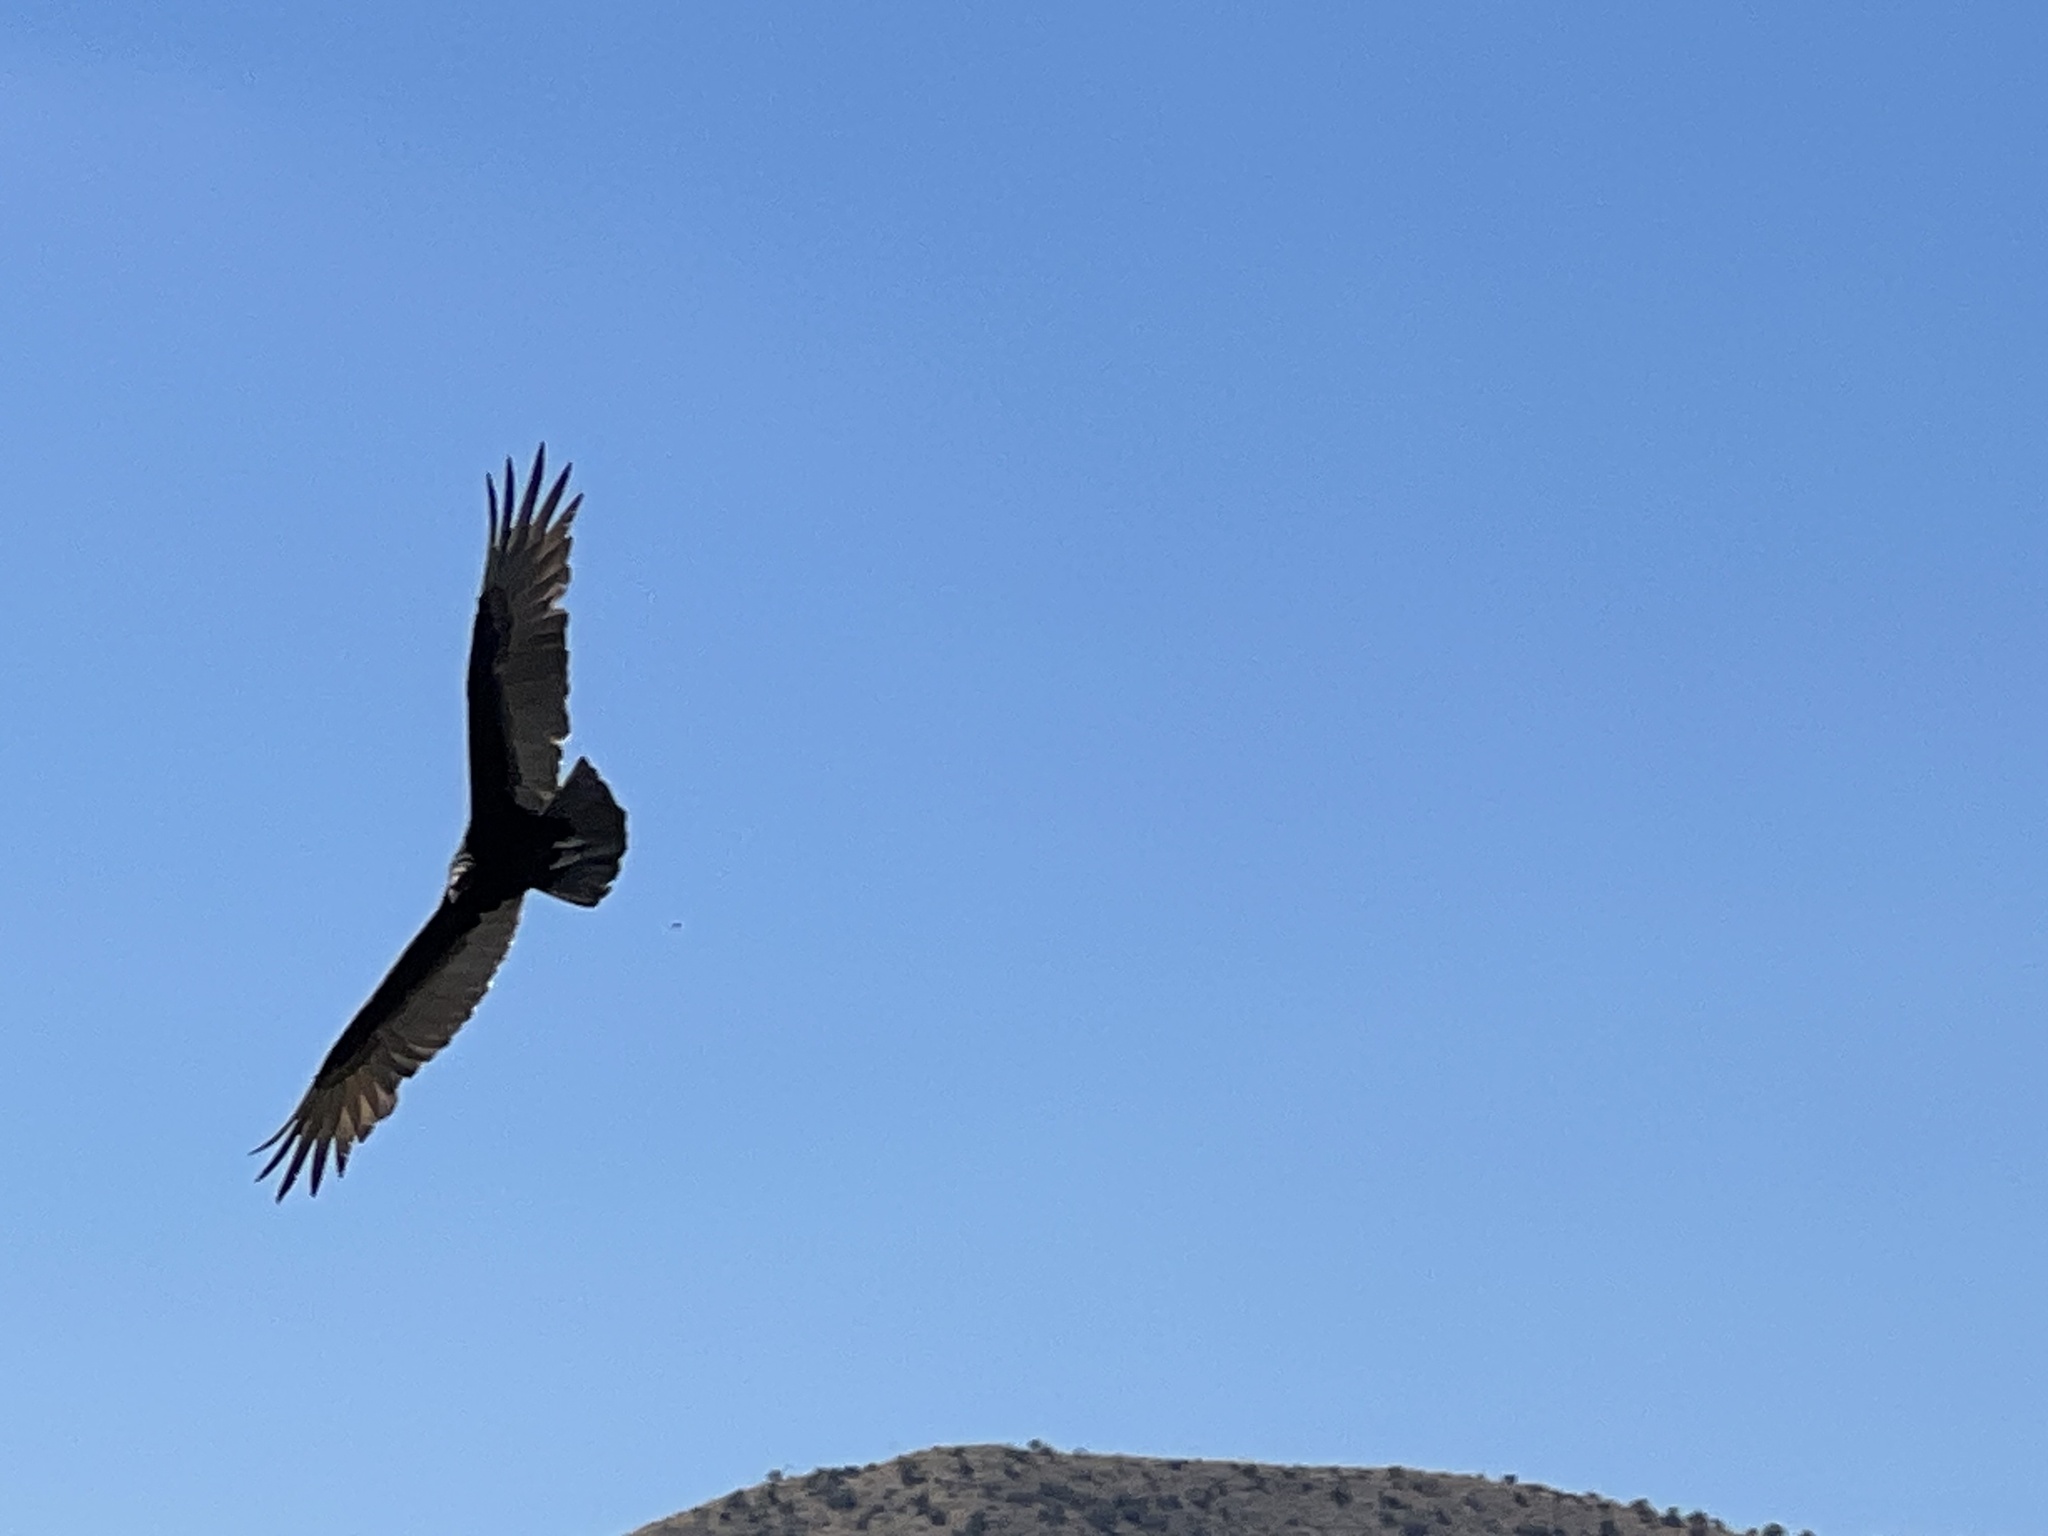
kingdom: Animalia
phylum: Chordata
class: Aves
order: Accipitriformes
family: Cathartidae
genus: Cathartes
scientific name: Cathartes aura
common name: Turkey vulture
